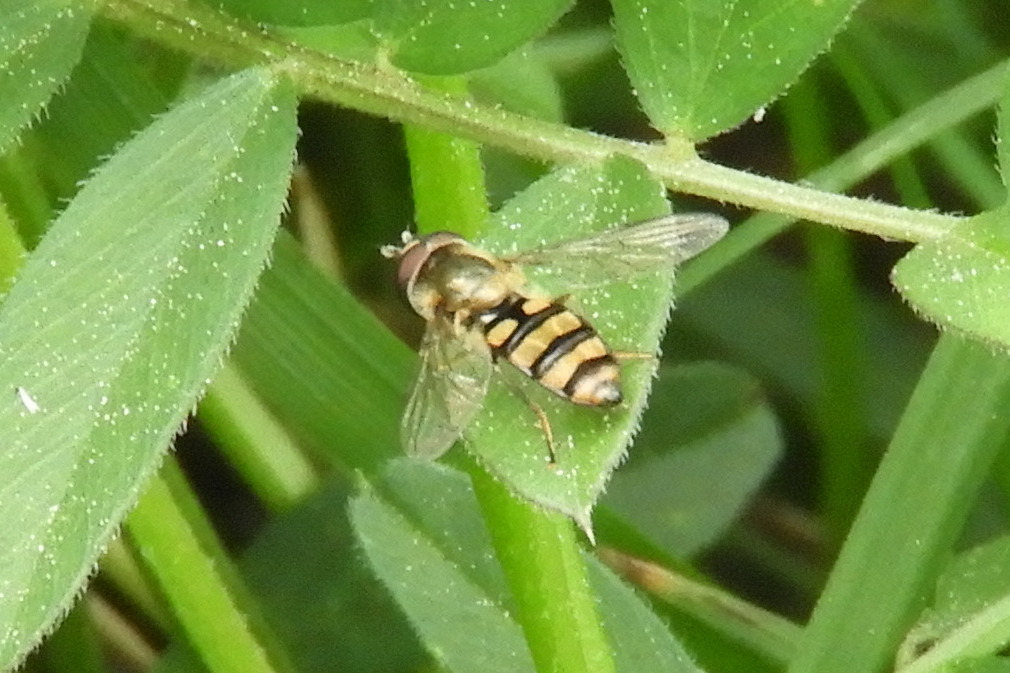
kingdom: Animalia
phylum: Arthropoda
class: Insecta
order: Diptera
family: Syrphidae
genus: Eupeodes
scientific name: Eupeodes
